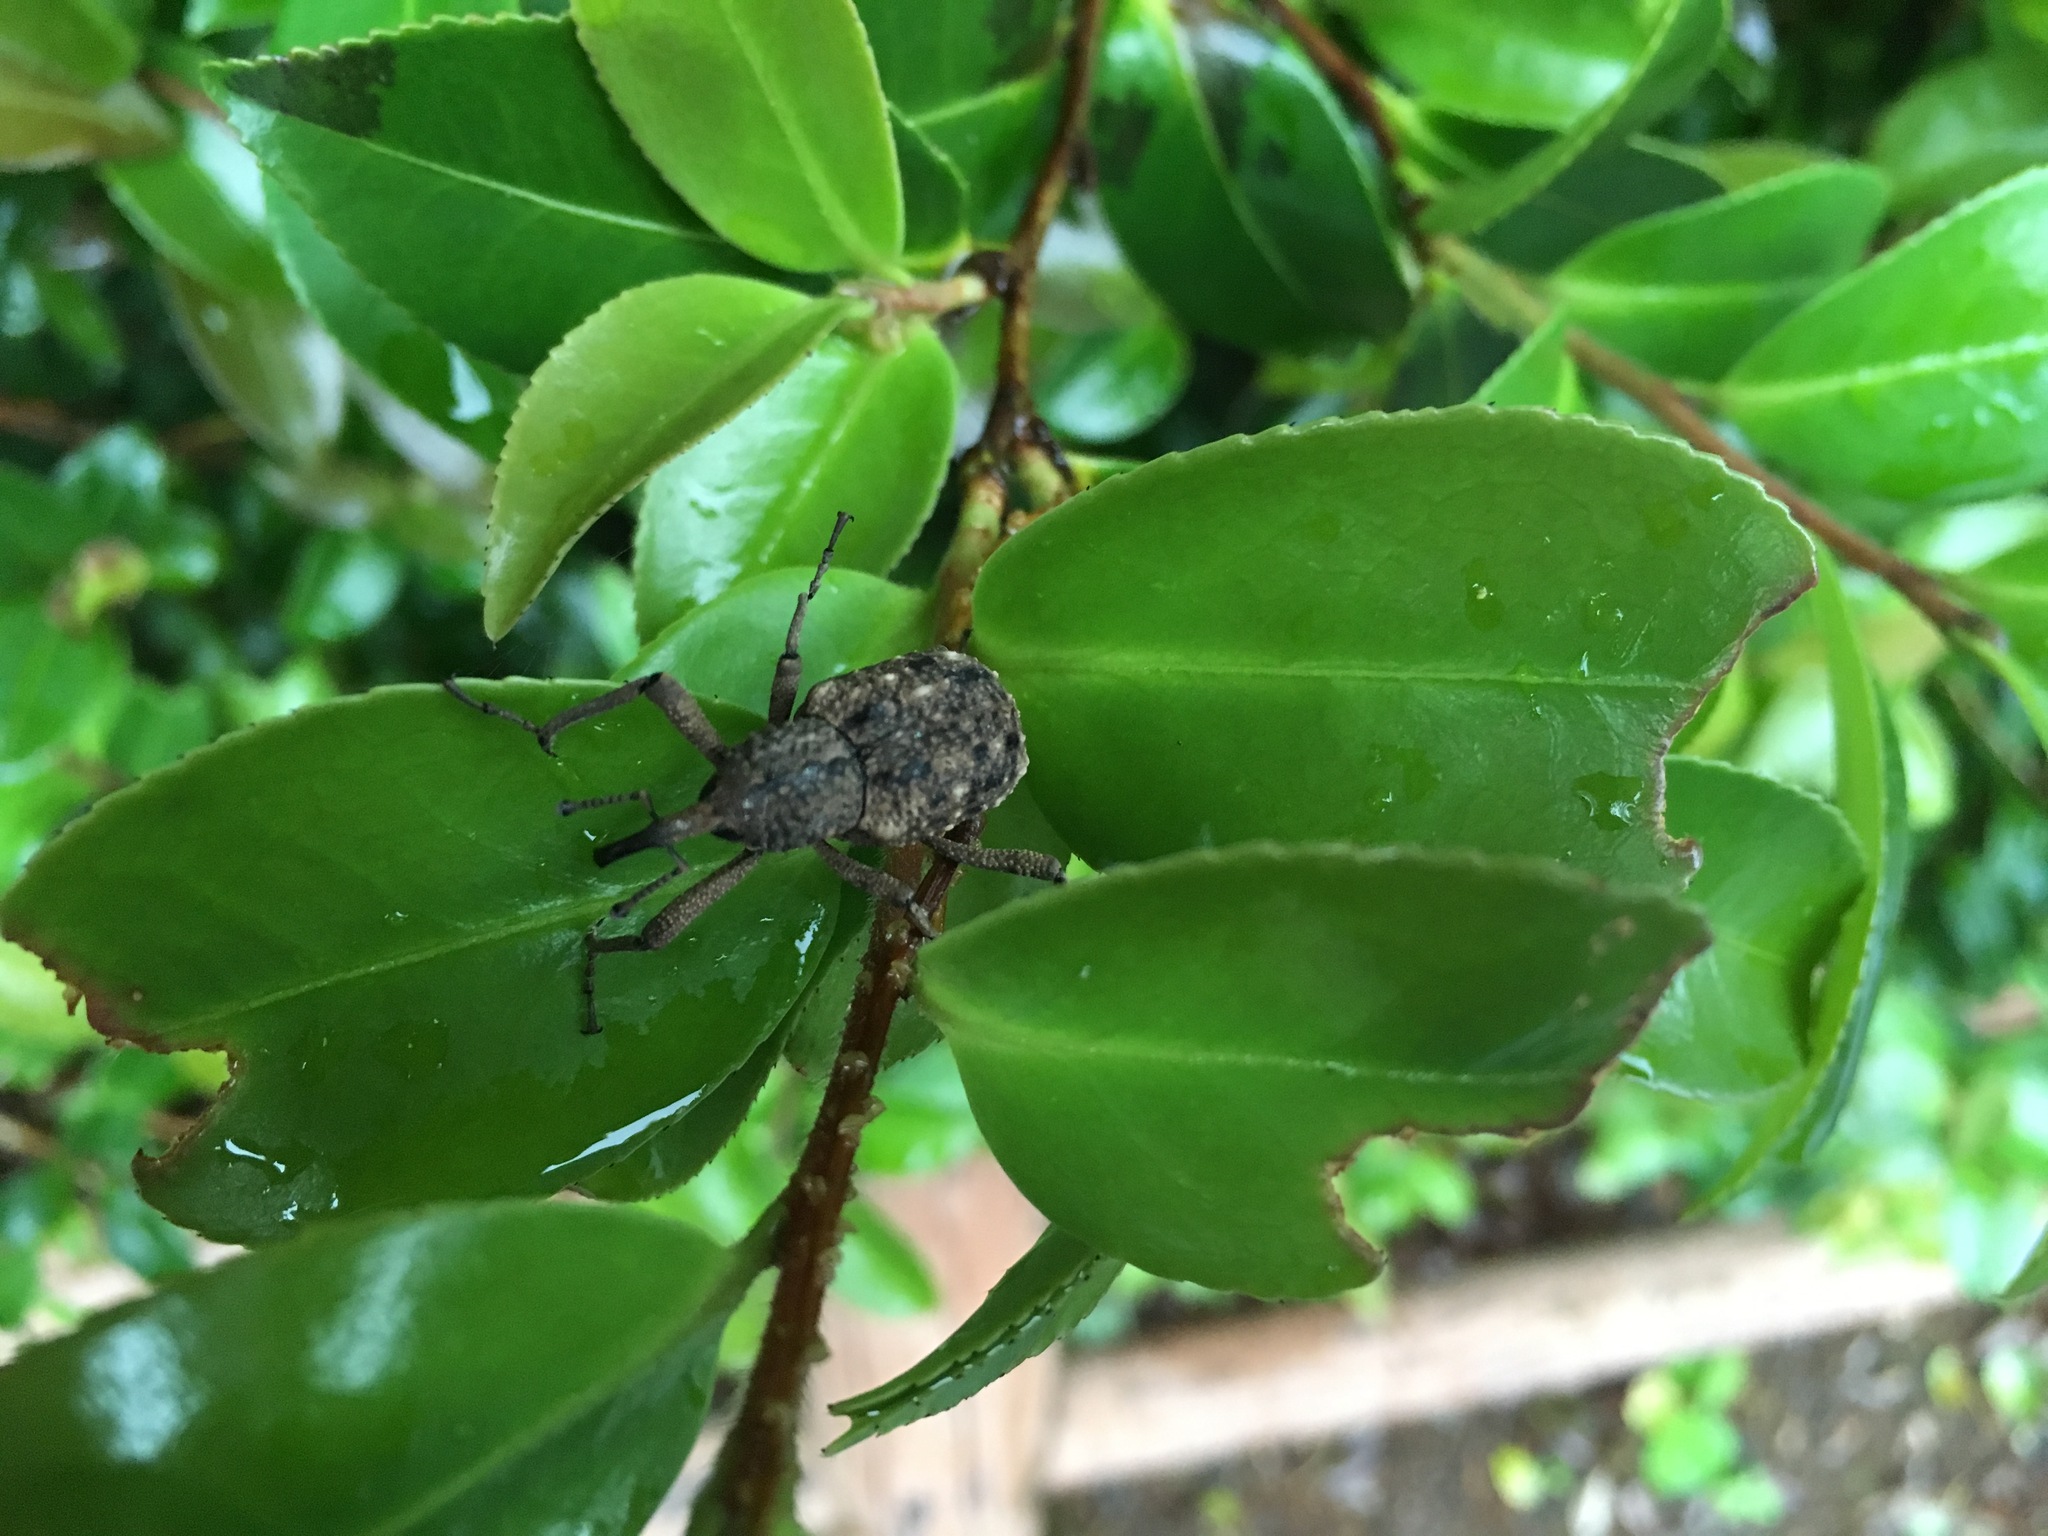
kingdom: Animalia
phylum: Arthropoda
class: Insecta
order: Coleoptera
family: Dryophthoridae
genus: Sipalinus
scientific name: Sipalinus gigas
